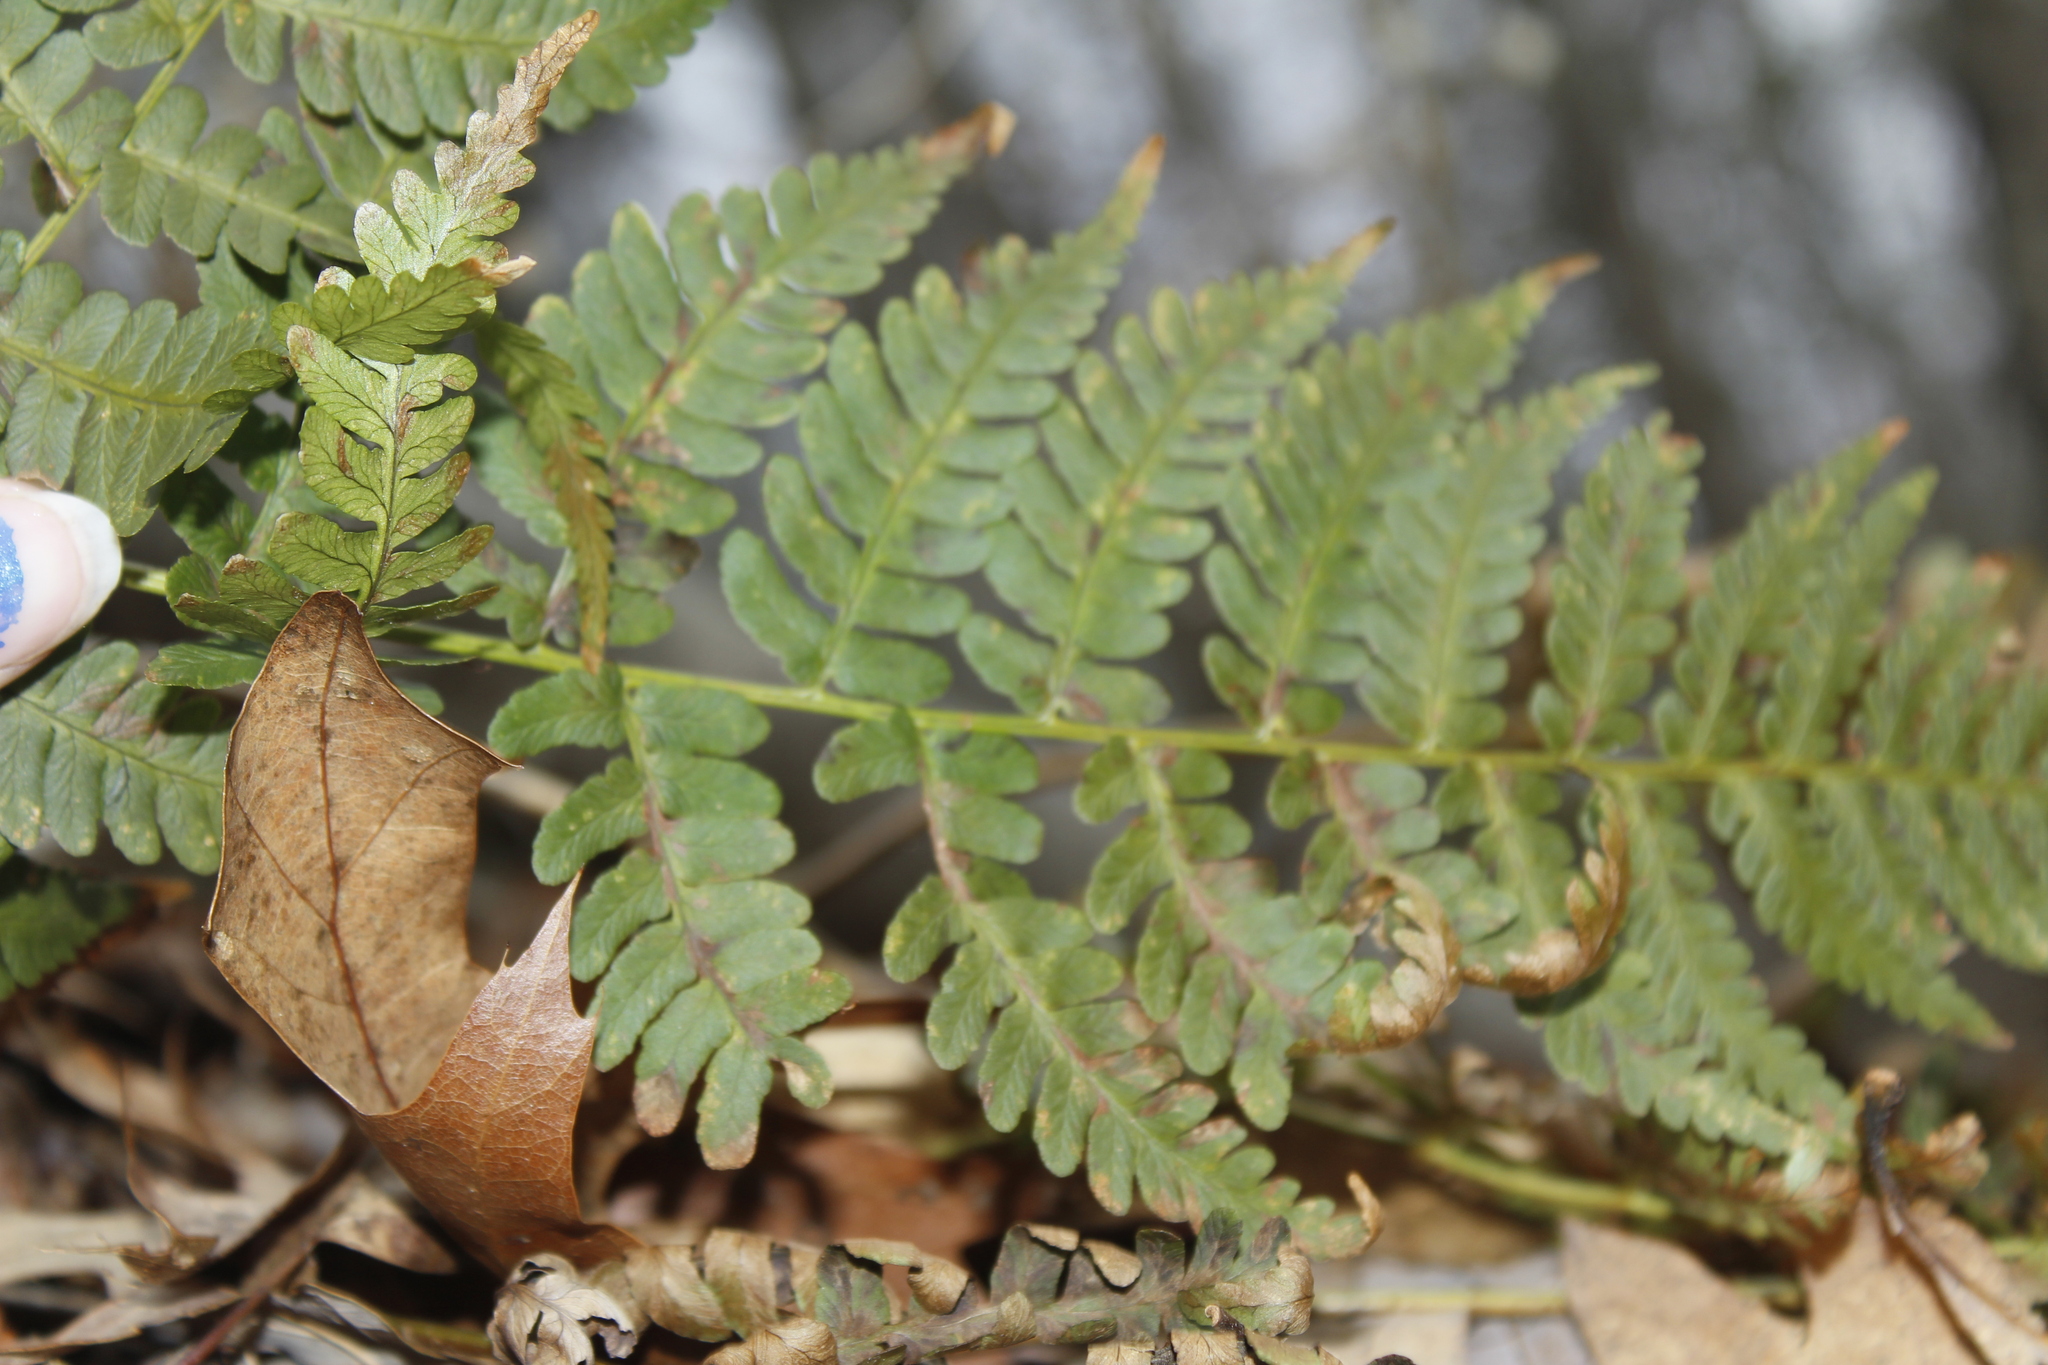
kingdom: Plantae
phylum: Tracheophyta
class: Polypodiopsida
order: Polypodiales
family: Dryopteridaceae
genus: Dryopteris
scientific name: Dryopteris marginalis
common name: Marginal wood fern
